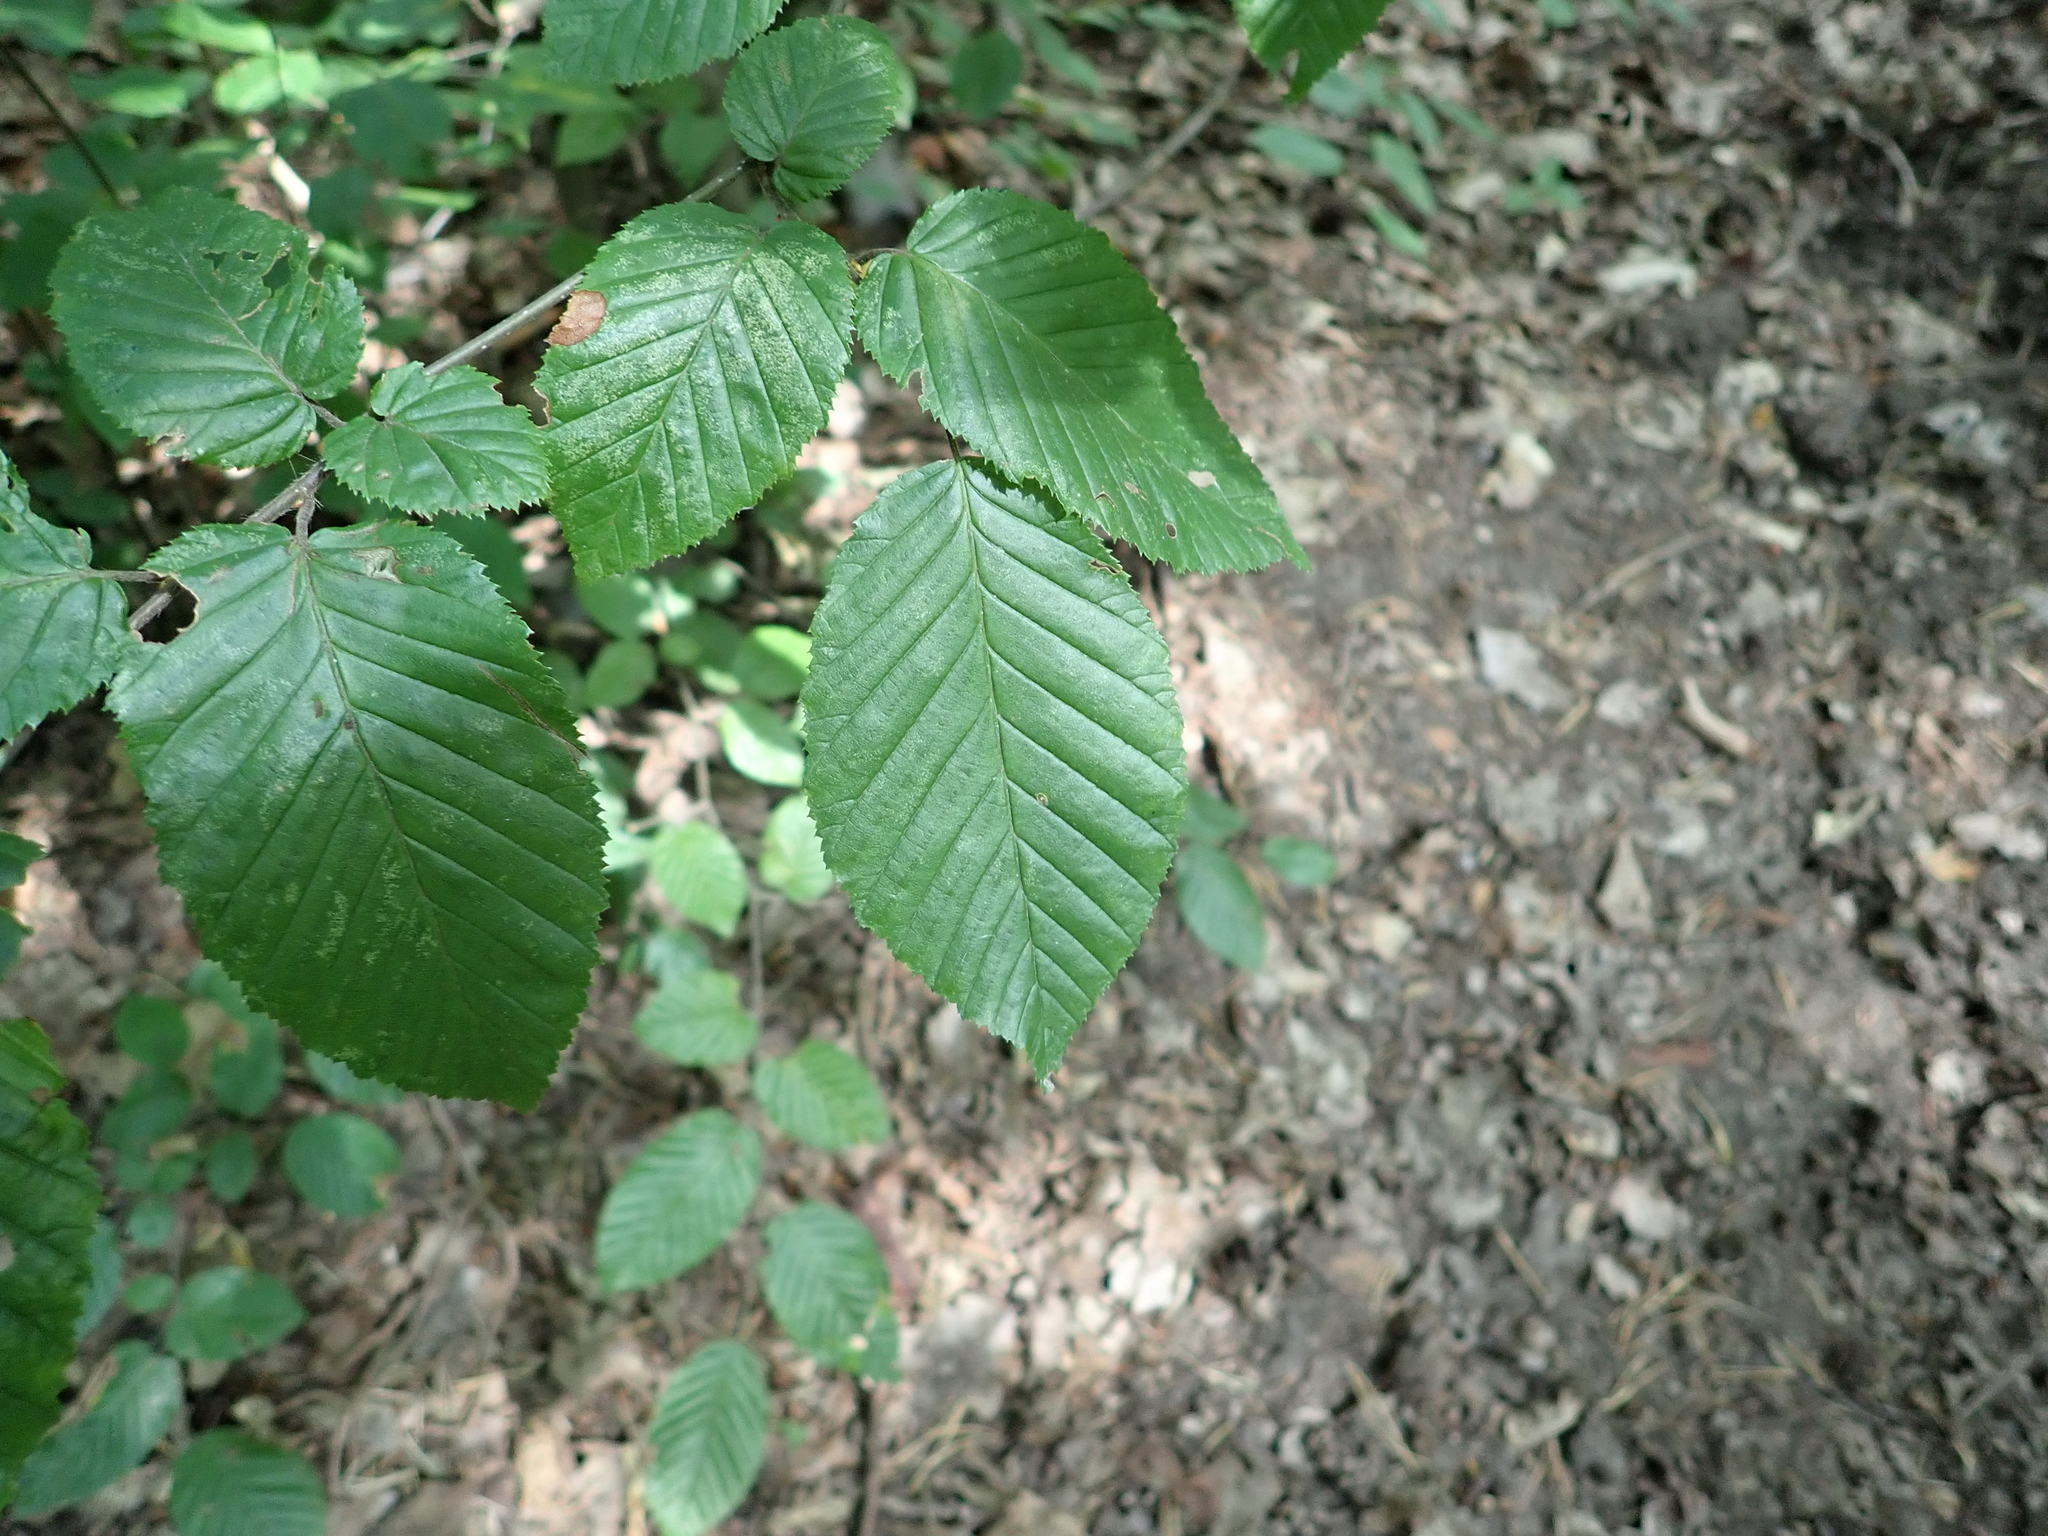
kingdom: Plantae
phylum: Tracheophyta
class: Magnoliopsida
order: Fagales
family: Betulaceae
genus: Carpinus
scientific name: Carpinus betulus
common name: Hornbeam
